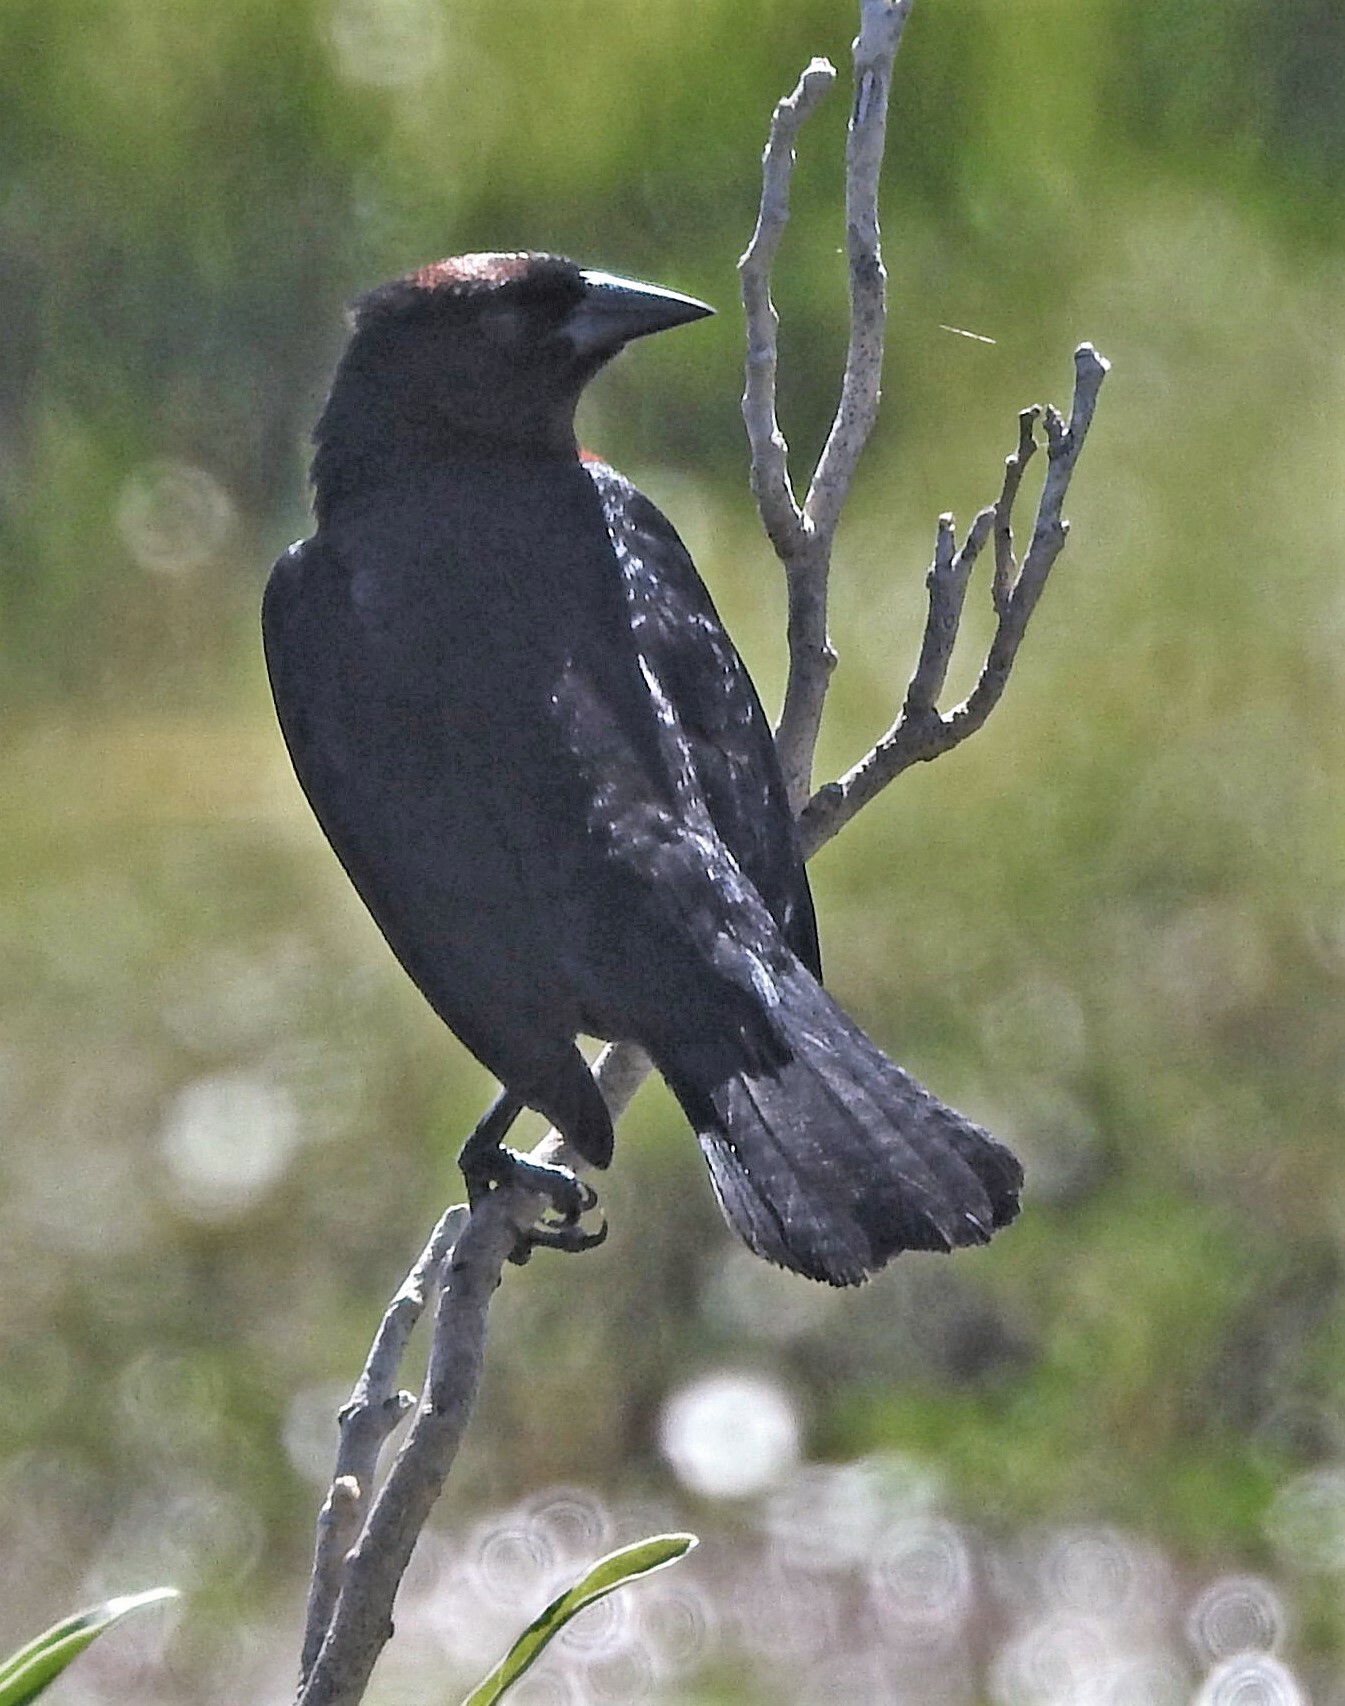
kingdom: Animalia
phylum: Chordata
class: Aves
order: Passeriformes
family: Icteridae
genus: Chrysomus
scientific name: Chrysomus ruficapillus
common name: Chestnut-capped blackbird
